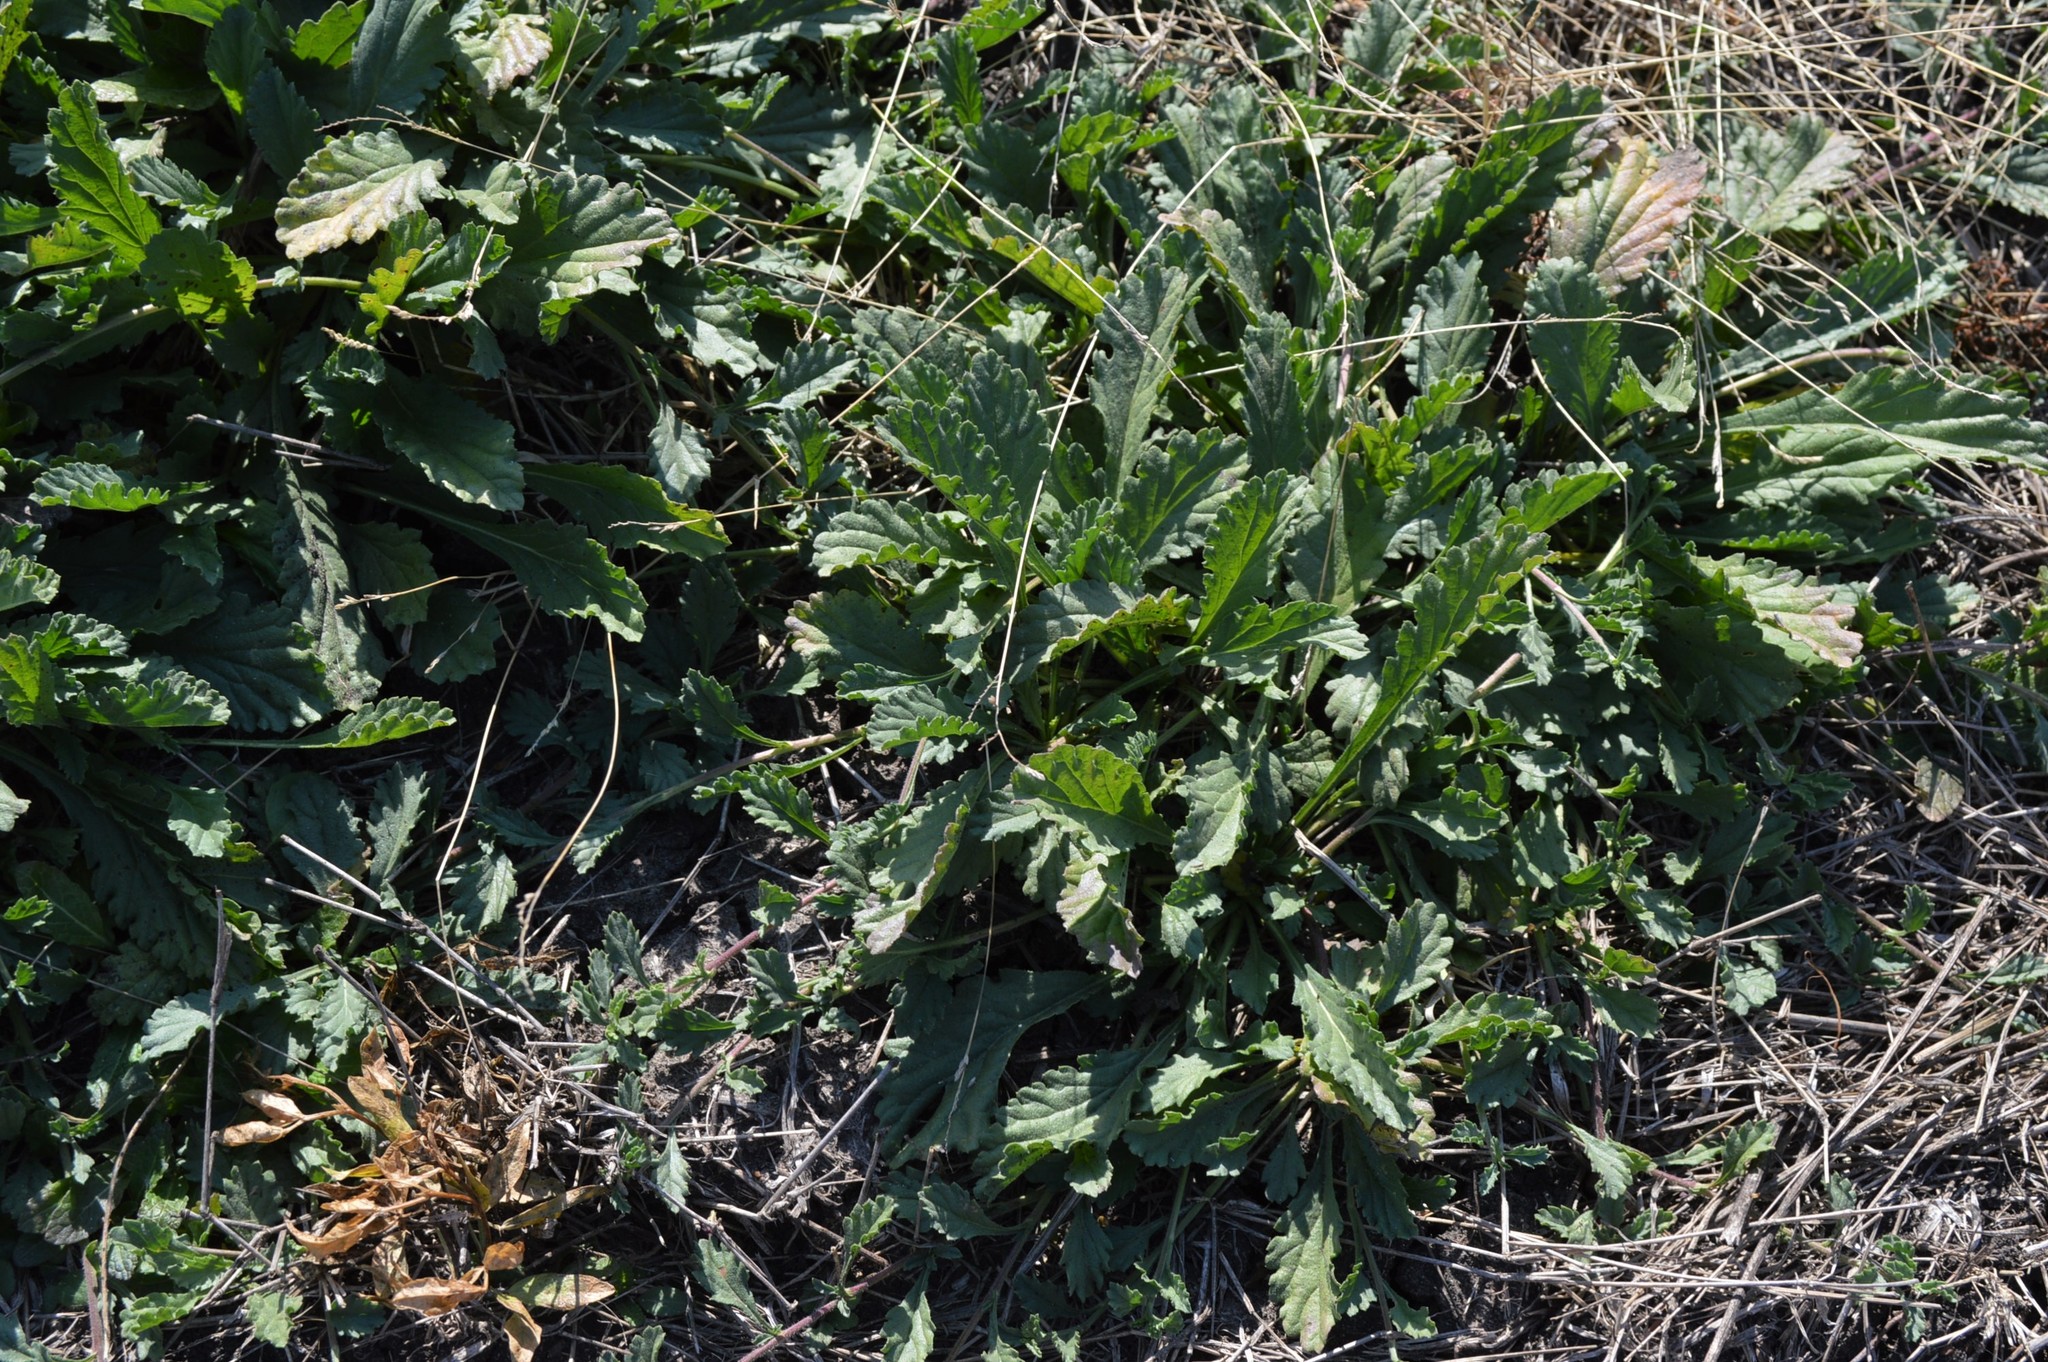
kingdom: Plantae
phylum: Tracheophyta
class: Magnoliopsida
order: Asterales
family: Asteraceae
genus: Nidorella
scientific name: Nidorella podocephala
